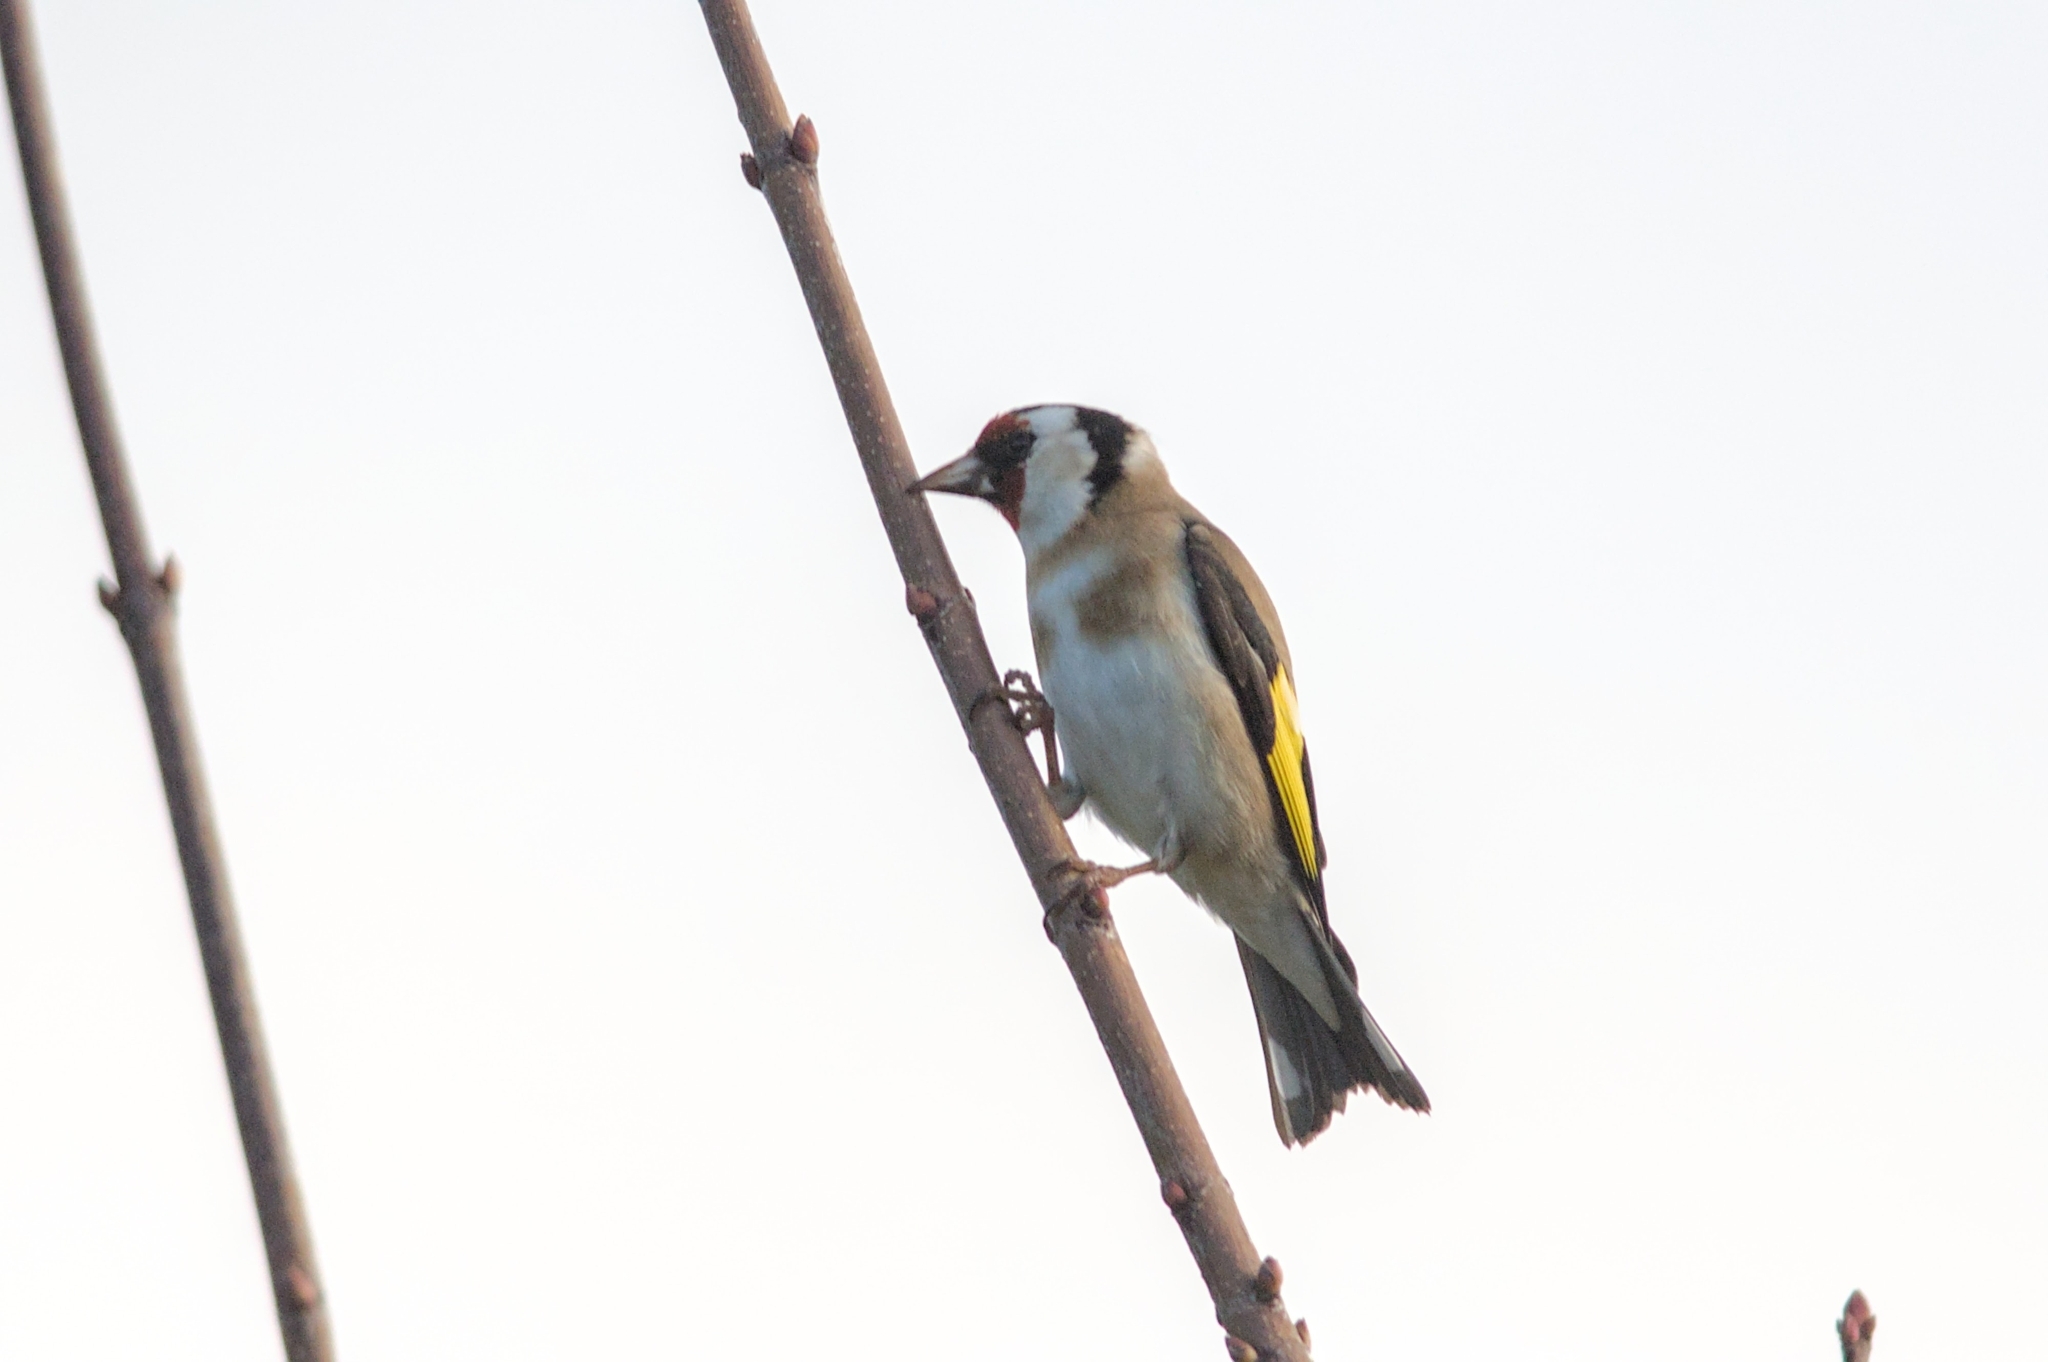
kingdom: Animalia
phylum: Chordata
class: Aves
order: Passeriformes
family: Fringillidae
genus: Carduelis
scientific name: Carduelis carduelis
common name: European goldfinch
